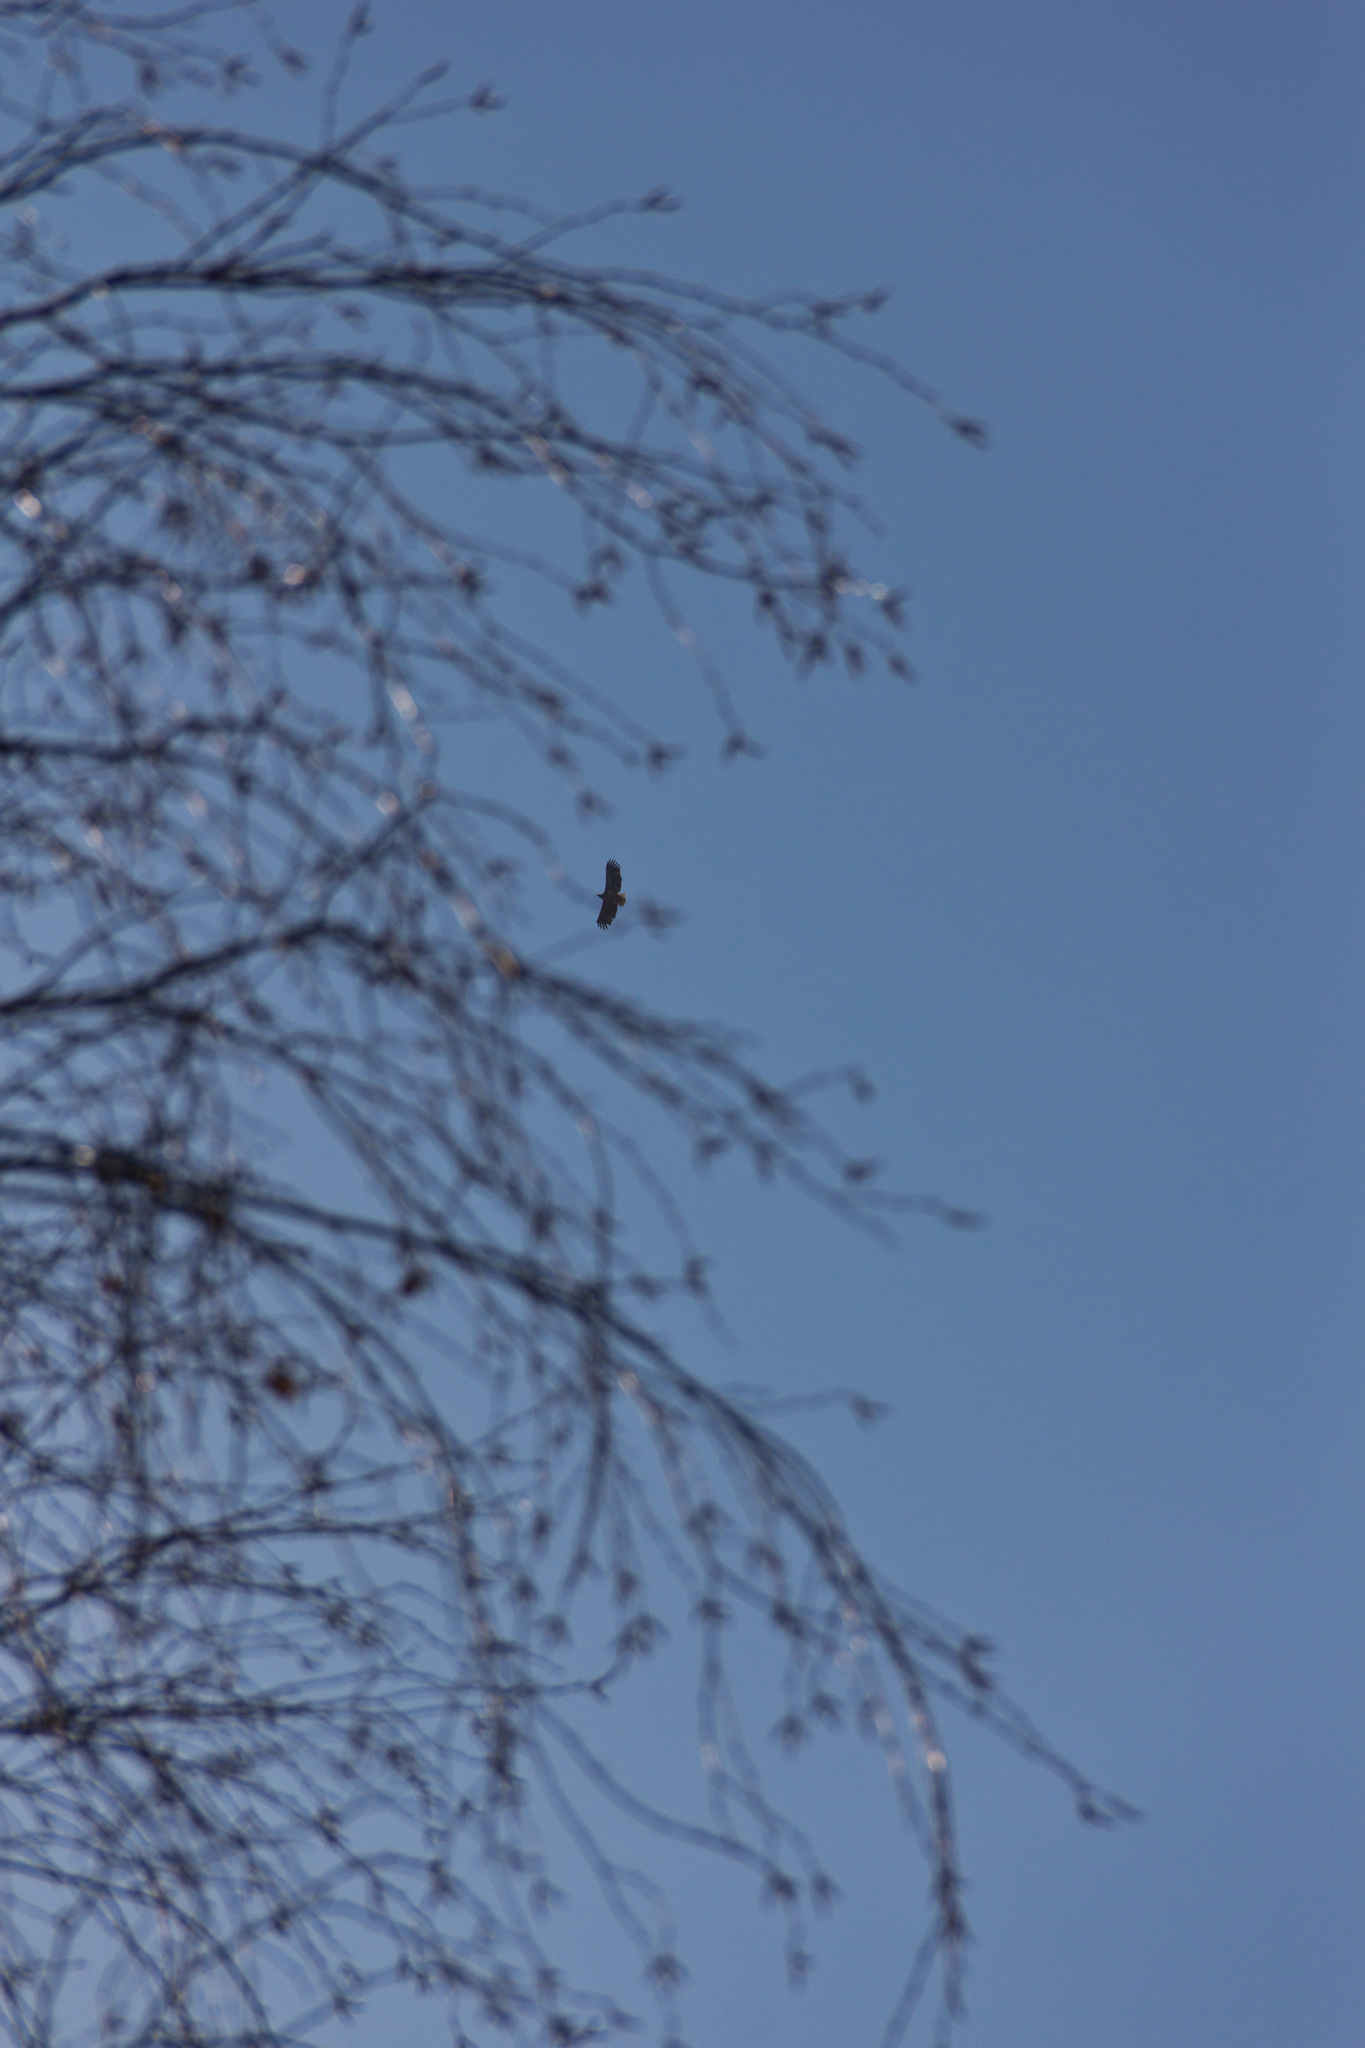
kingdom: Animalia
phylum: Chordata
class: Aves
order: Accipitriformes
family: Accipitridae
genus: Haliaeetus
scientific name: Haliaeetus albicilla
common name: White-tailed eagle
